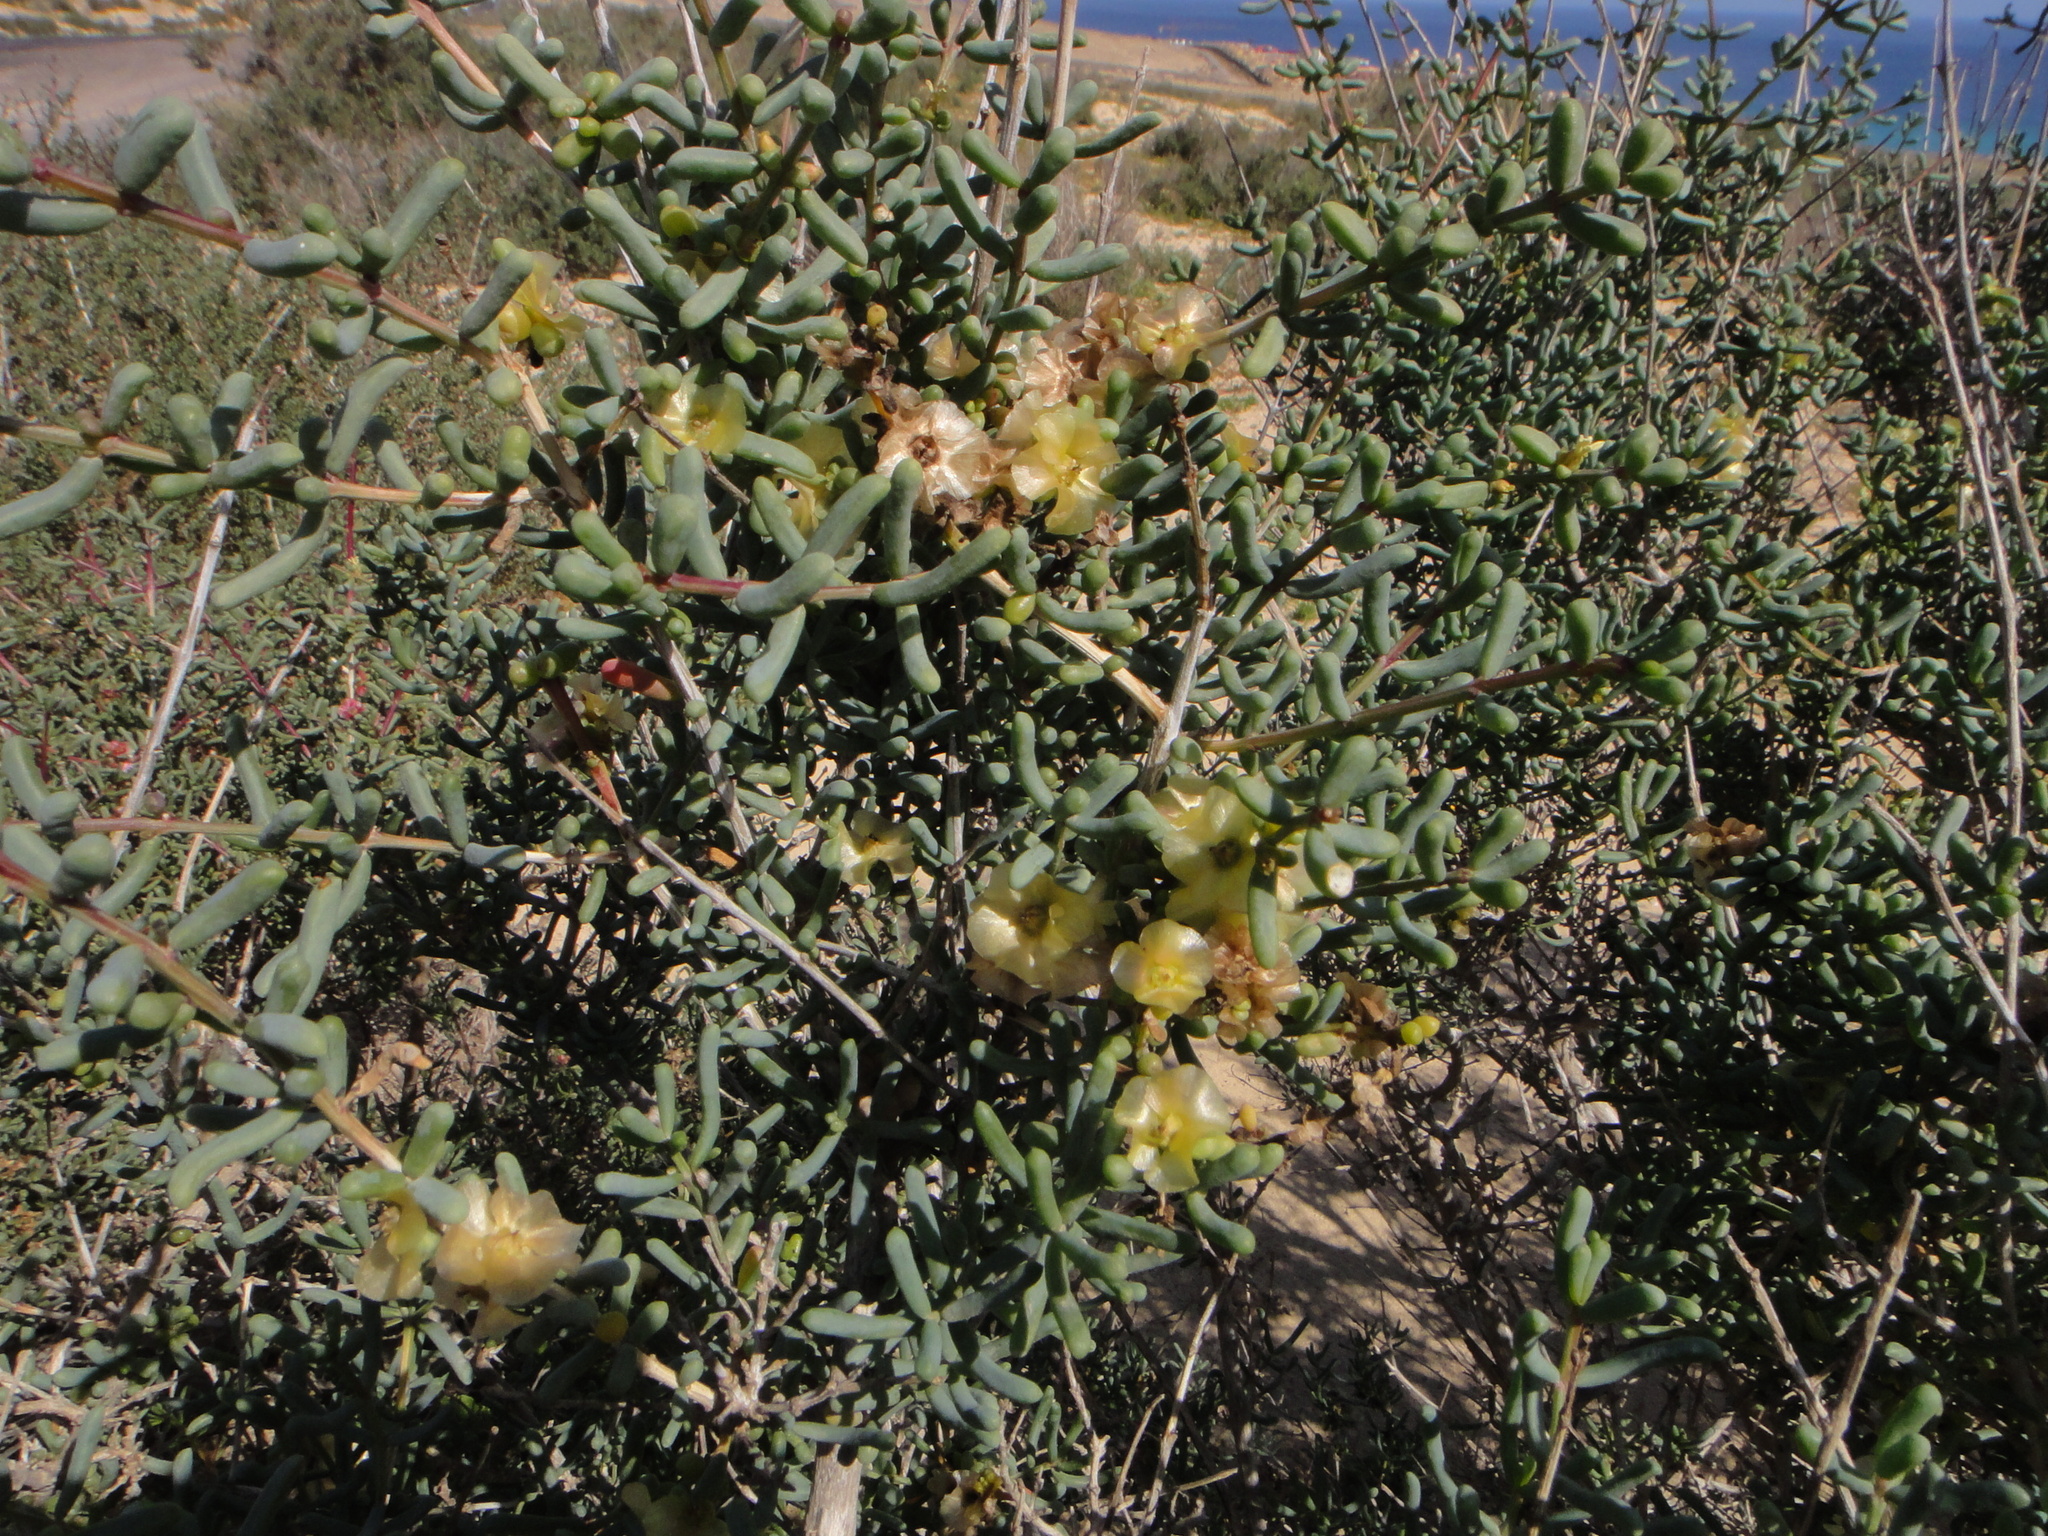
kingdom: Plantae
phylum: Tracheophyta
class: Magnoliopsida
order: Caryophyllales
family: Amaranthaceae
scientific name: Amaranthaceae
